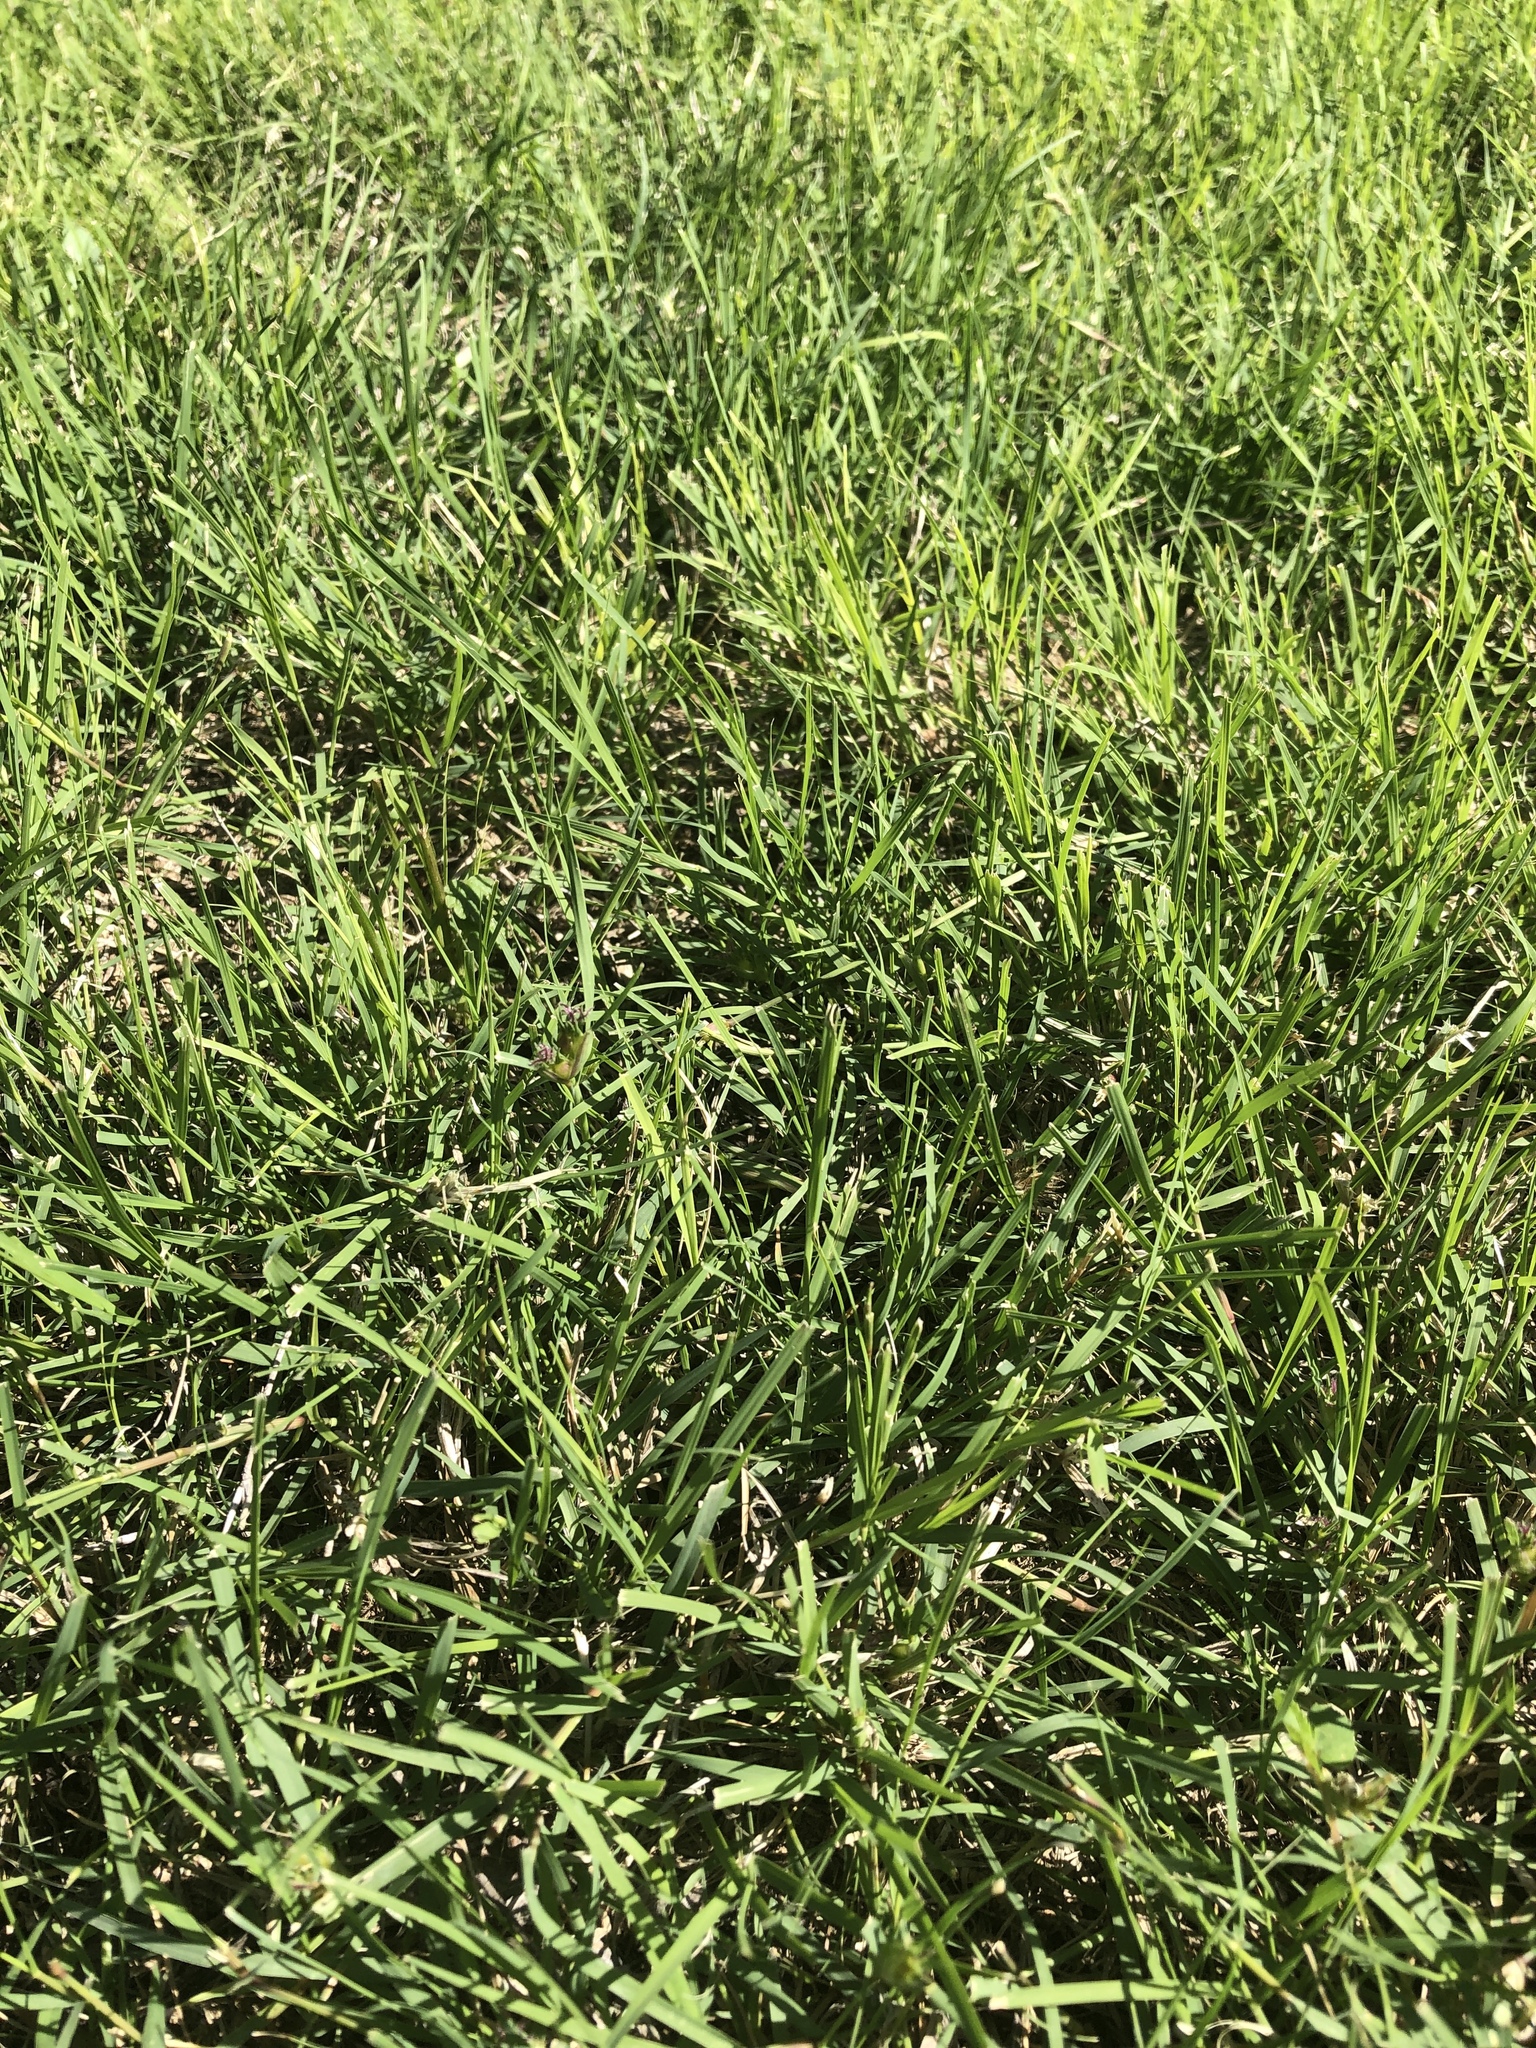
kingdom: Plantae
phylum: Tracheophyta
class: Liliopsida
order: Poales
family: Poaceae
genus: Bouteloua
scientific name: Bouteloua dactyloides
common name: Buffalo grass
